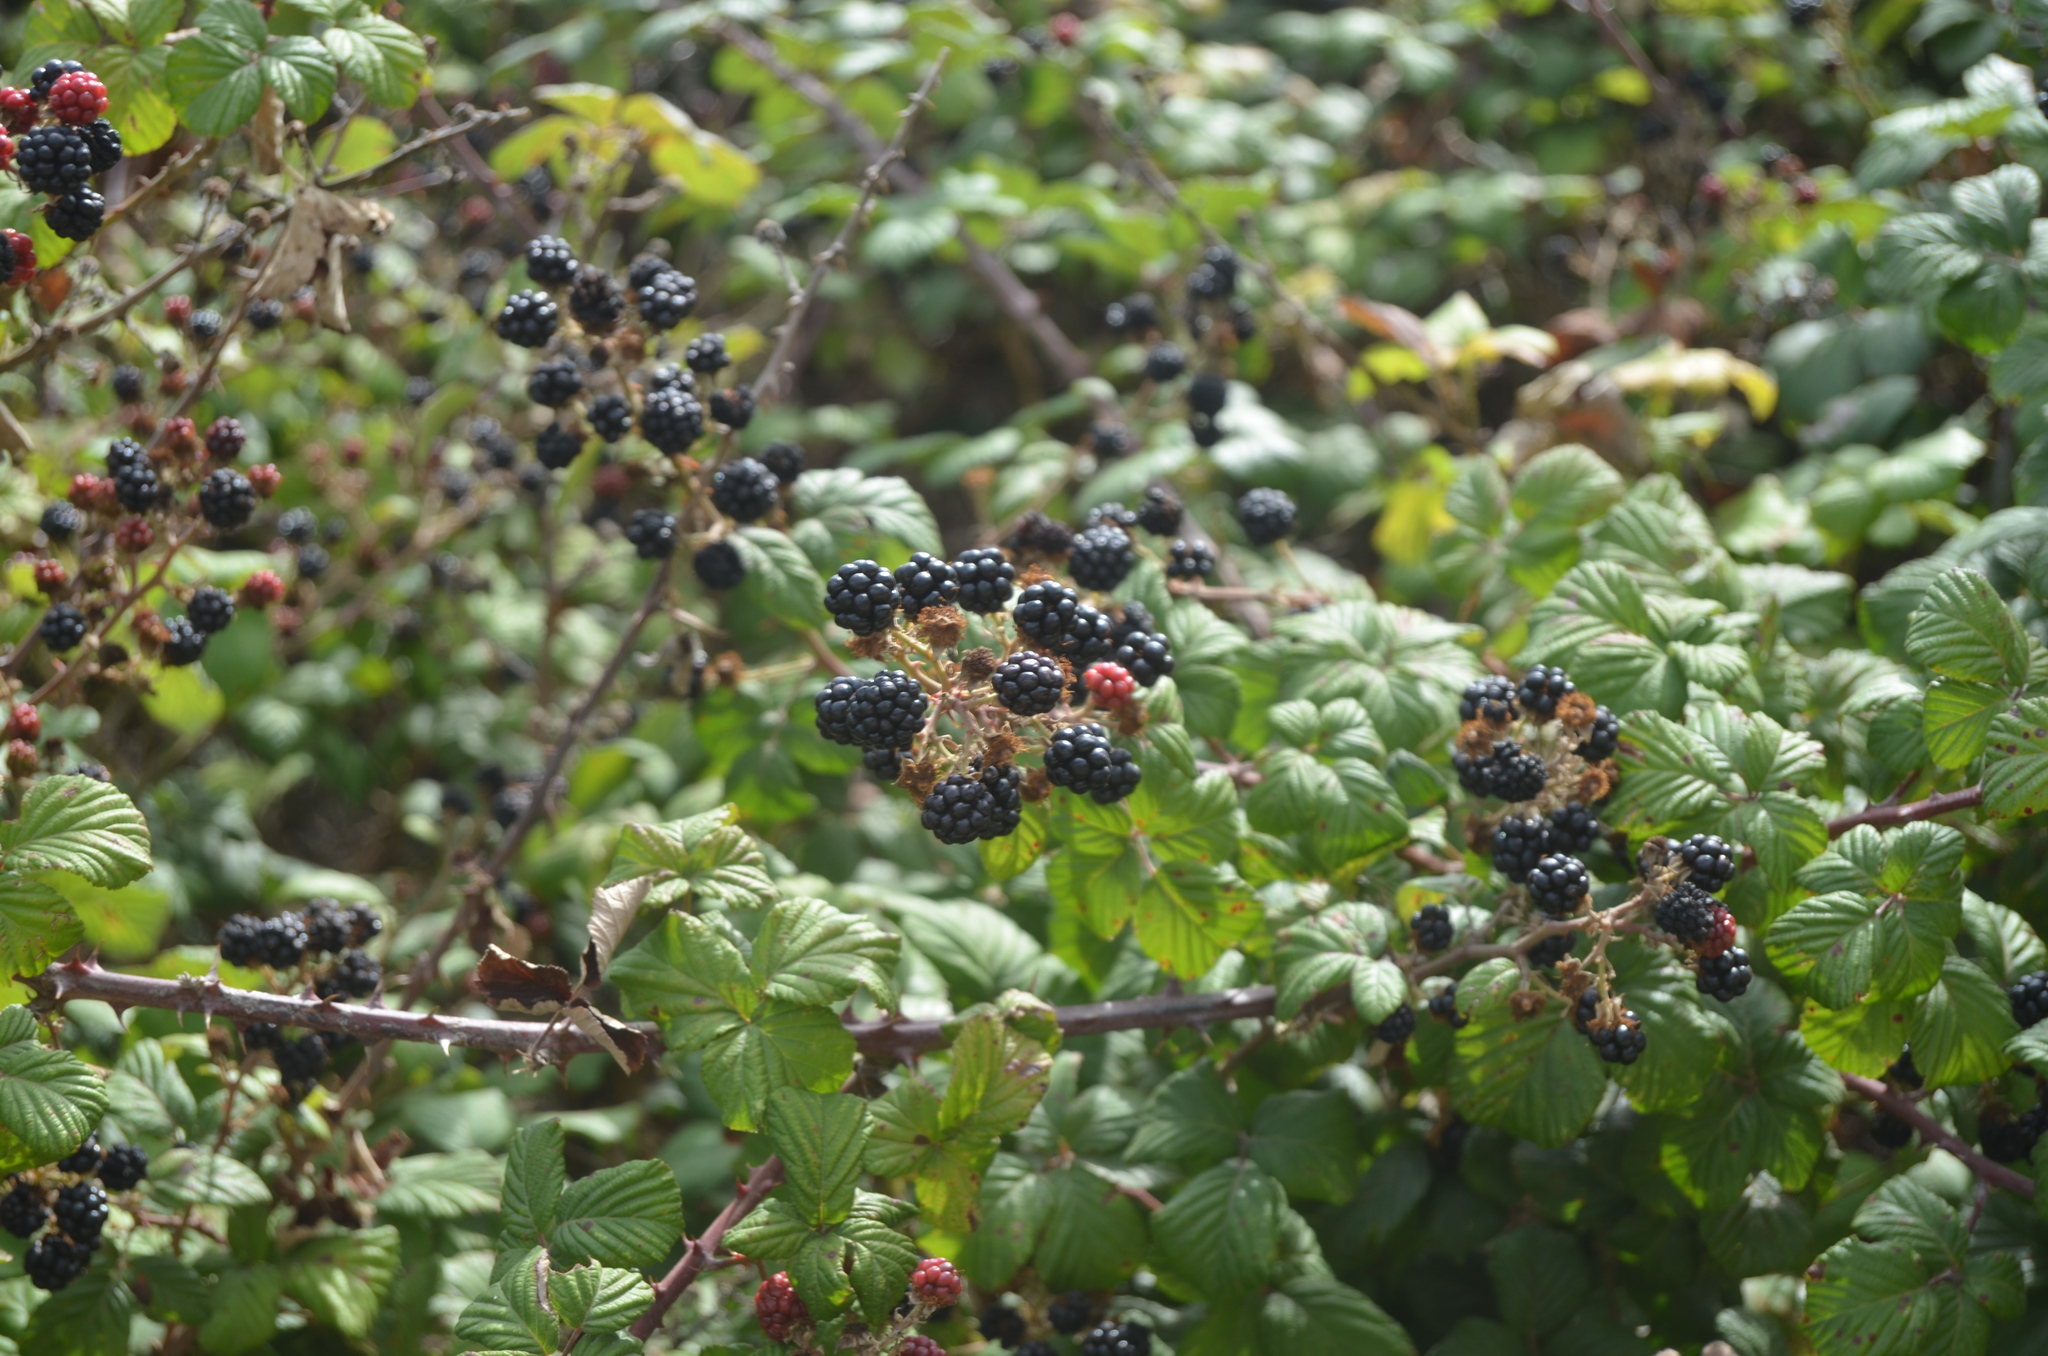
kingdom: Plantae
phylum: Tracheophyta
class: Magnoliopsida
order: Rosales
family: Rosaceae
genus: Rubus
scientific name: Rubus ulmifolius
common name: Elmleaf blackberry
